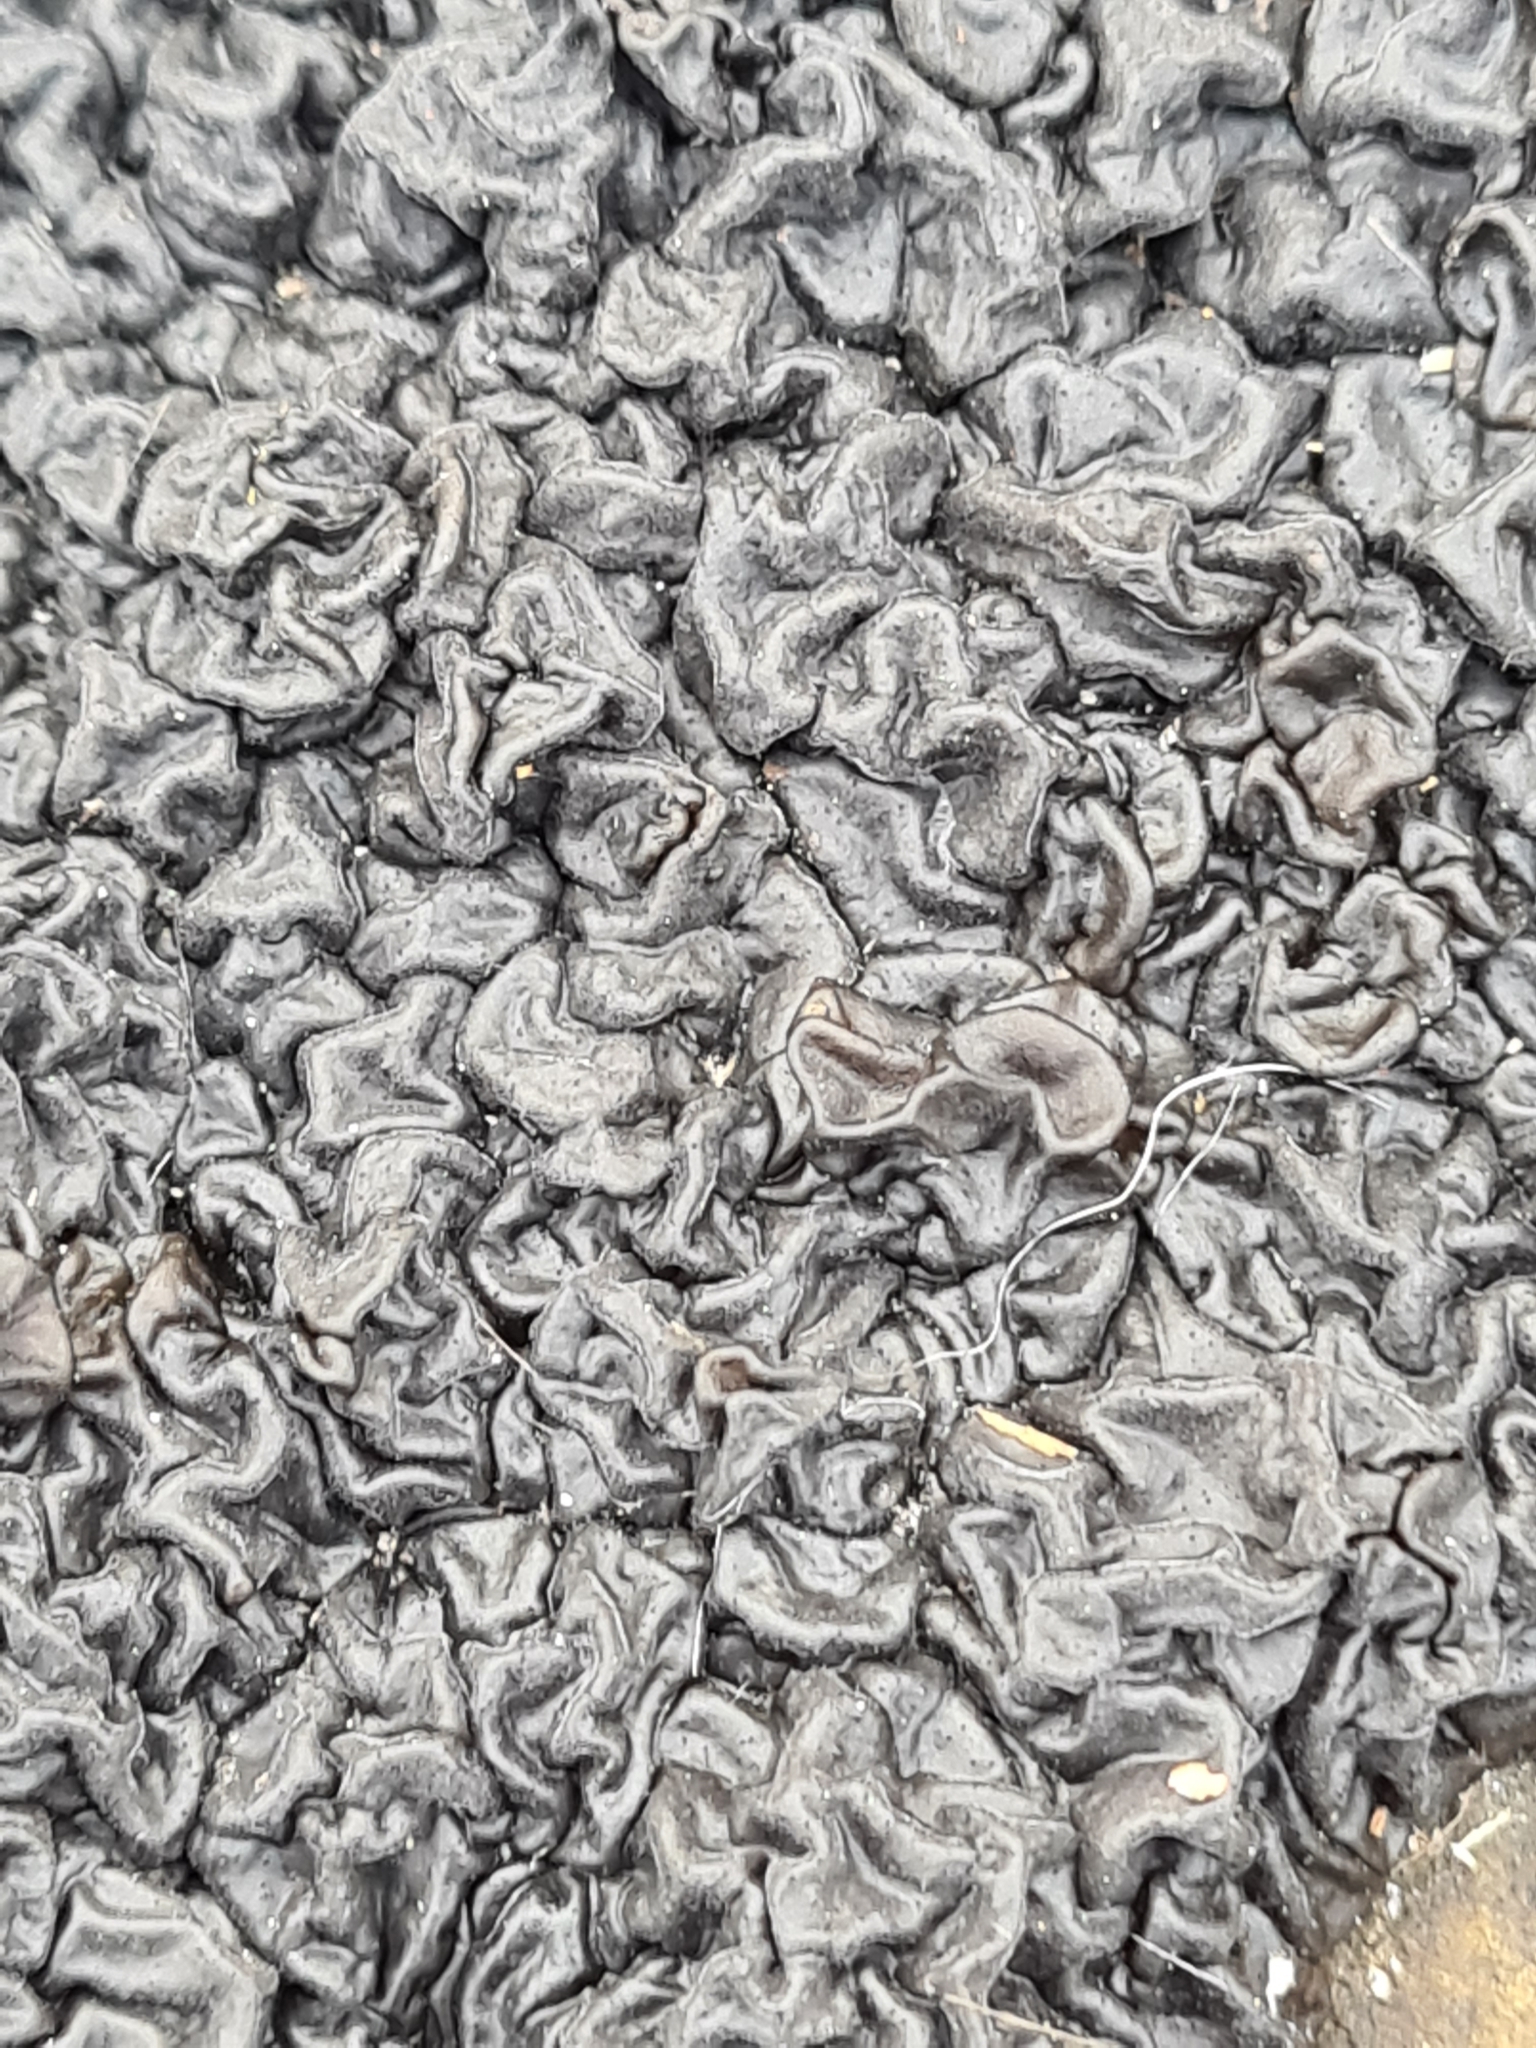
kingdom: Fungi
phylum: Basidiomycota
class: Agaricomycetes
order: Auriculariales
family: Auriculariaceae
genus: Exidia
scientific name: Exidia nigricans
